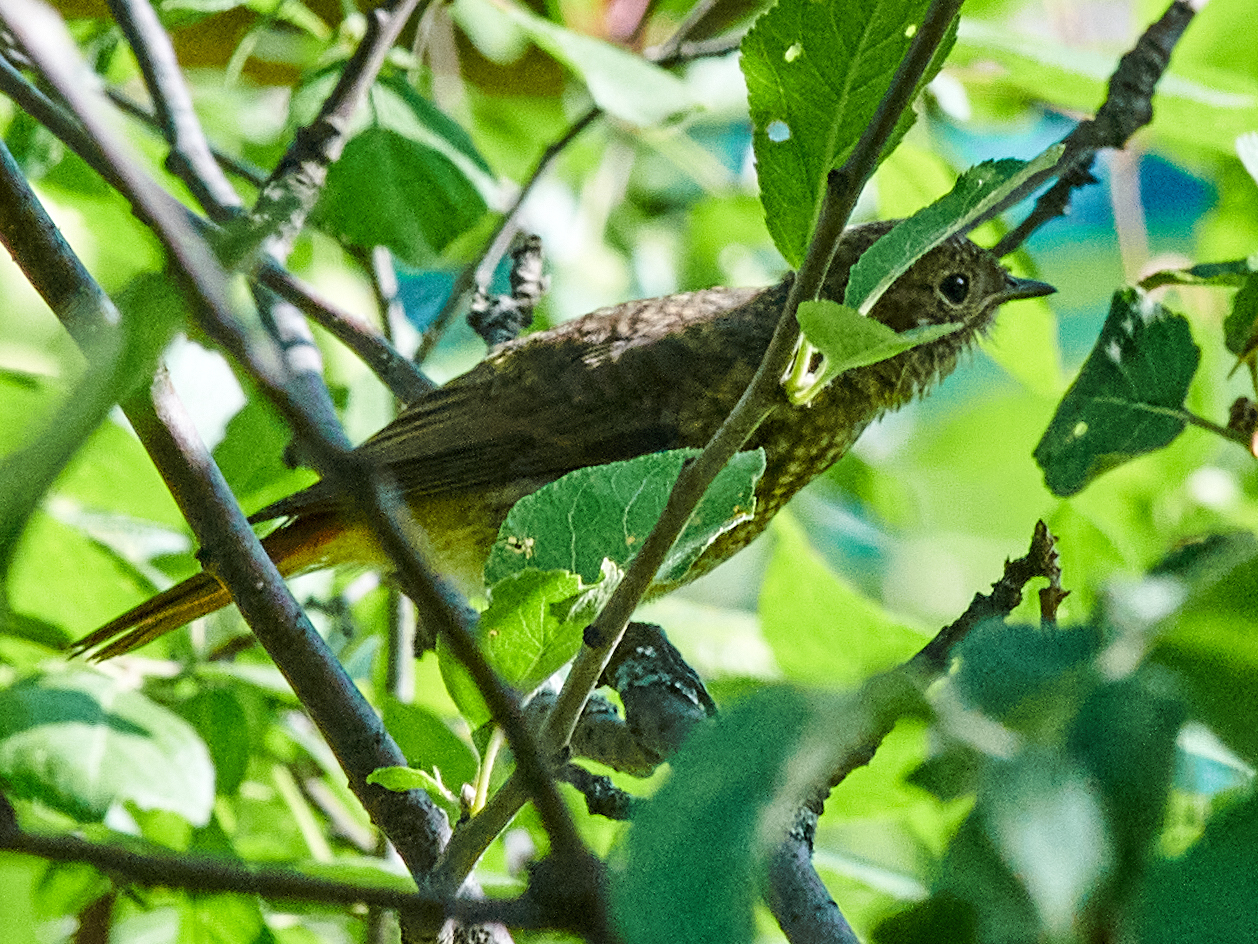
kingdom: Animalia
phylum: Chordata
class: Aves
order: Passeriformes
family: Muscicapidae
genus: Phoenicurus
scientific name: Phoenicurus phoenicurus
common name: Common redstart
